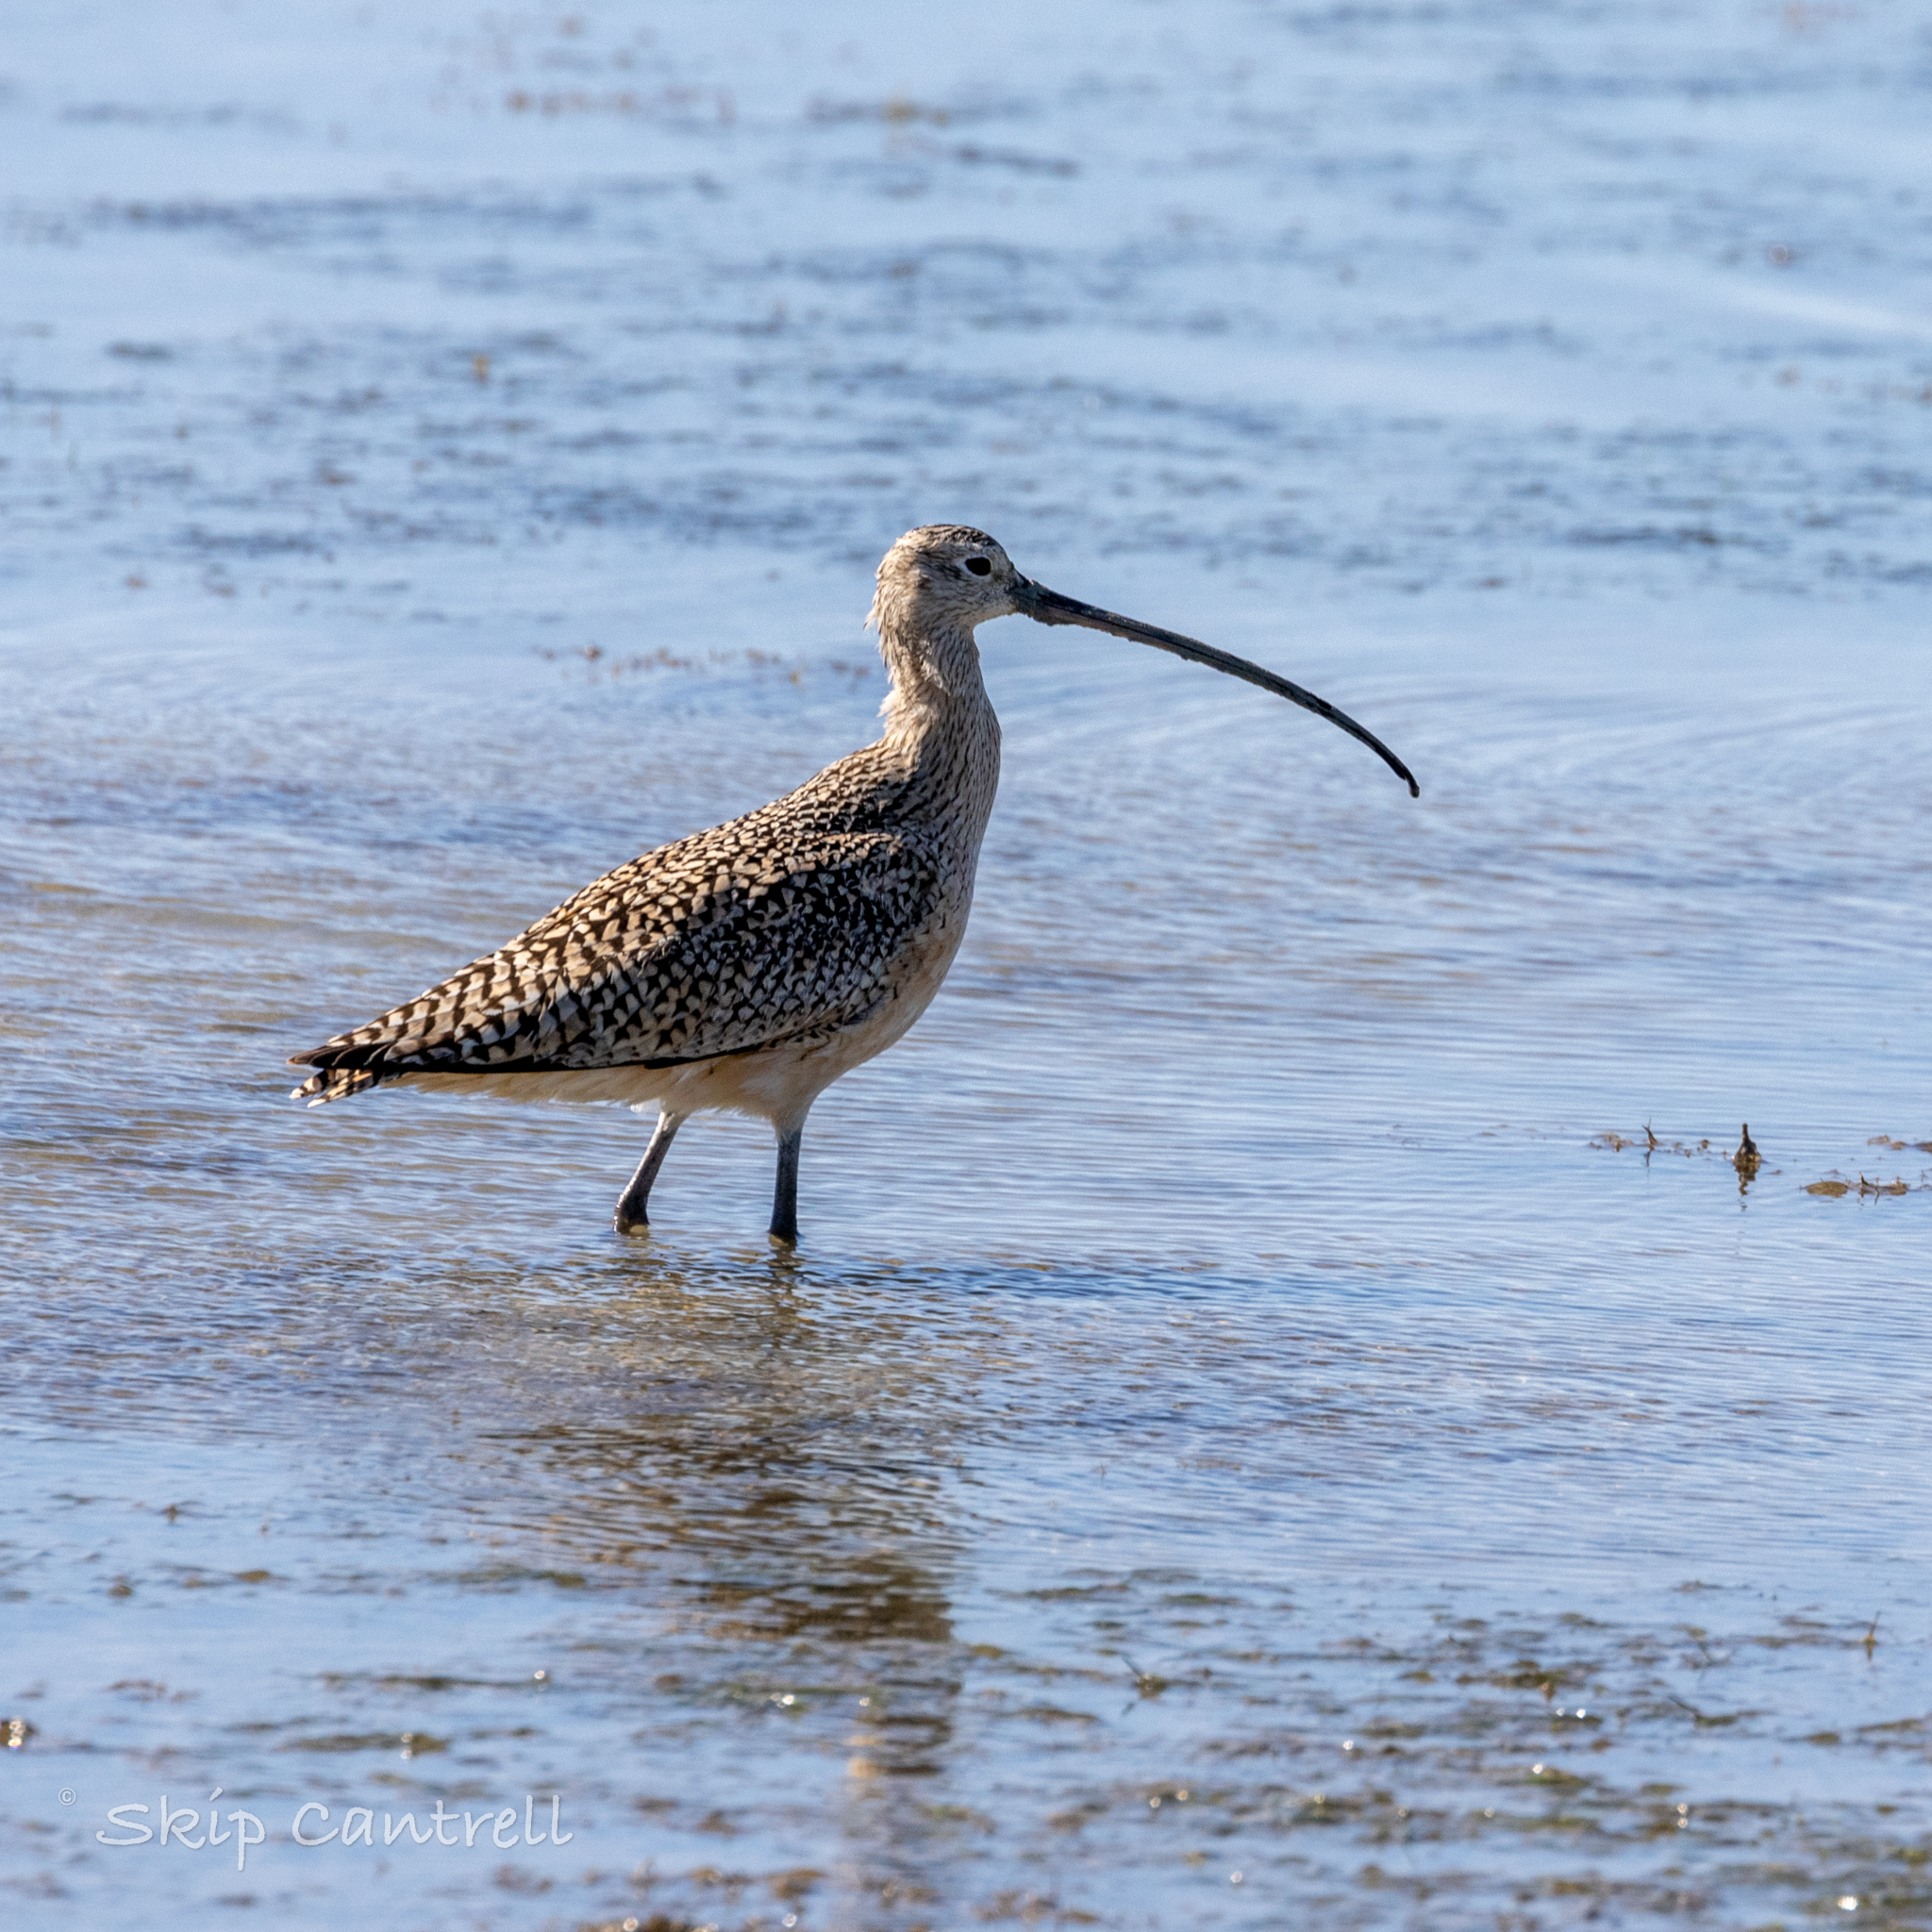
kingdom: Animalia
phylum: Chordata
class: Aves
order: Charadriiformes
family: Scolopacidae
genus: Numenius
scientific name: Numenius americanus
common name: Long-billed curlew
